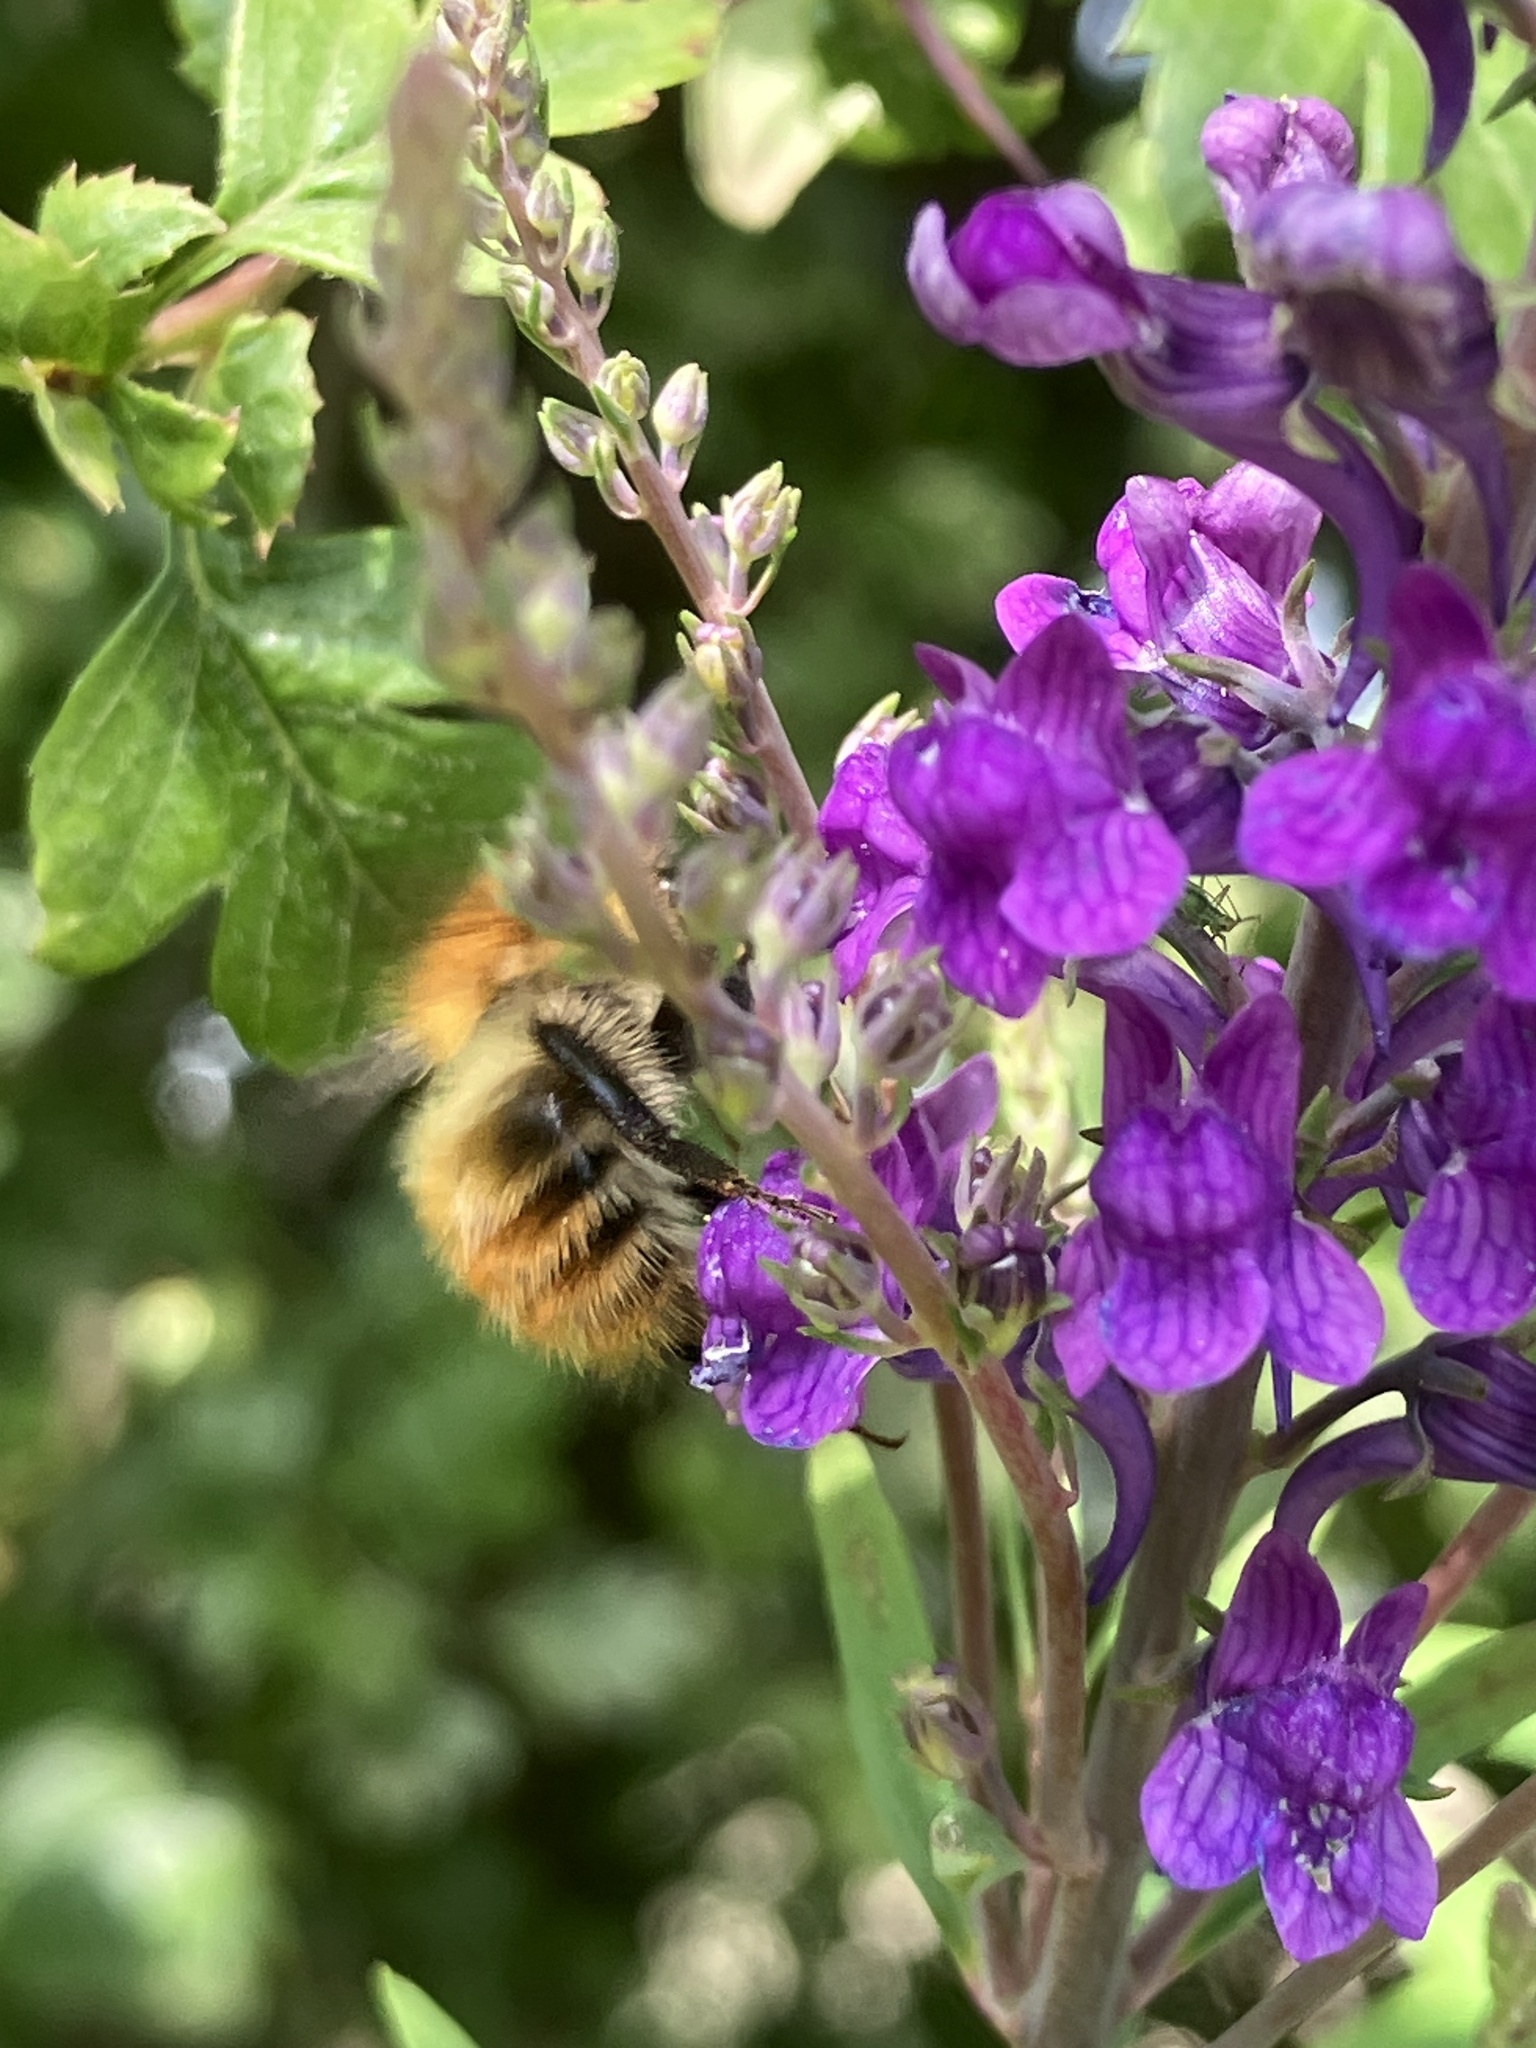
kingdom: Animalia
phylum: Arthropoda
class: Insecta
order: Hymenoptera
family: Apidae
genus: Bombus
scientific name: Bombus pascuorum
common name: Common carder bee
